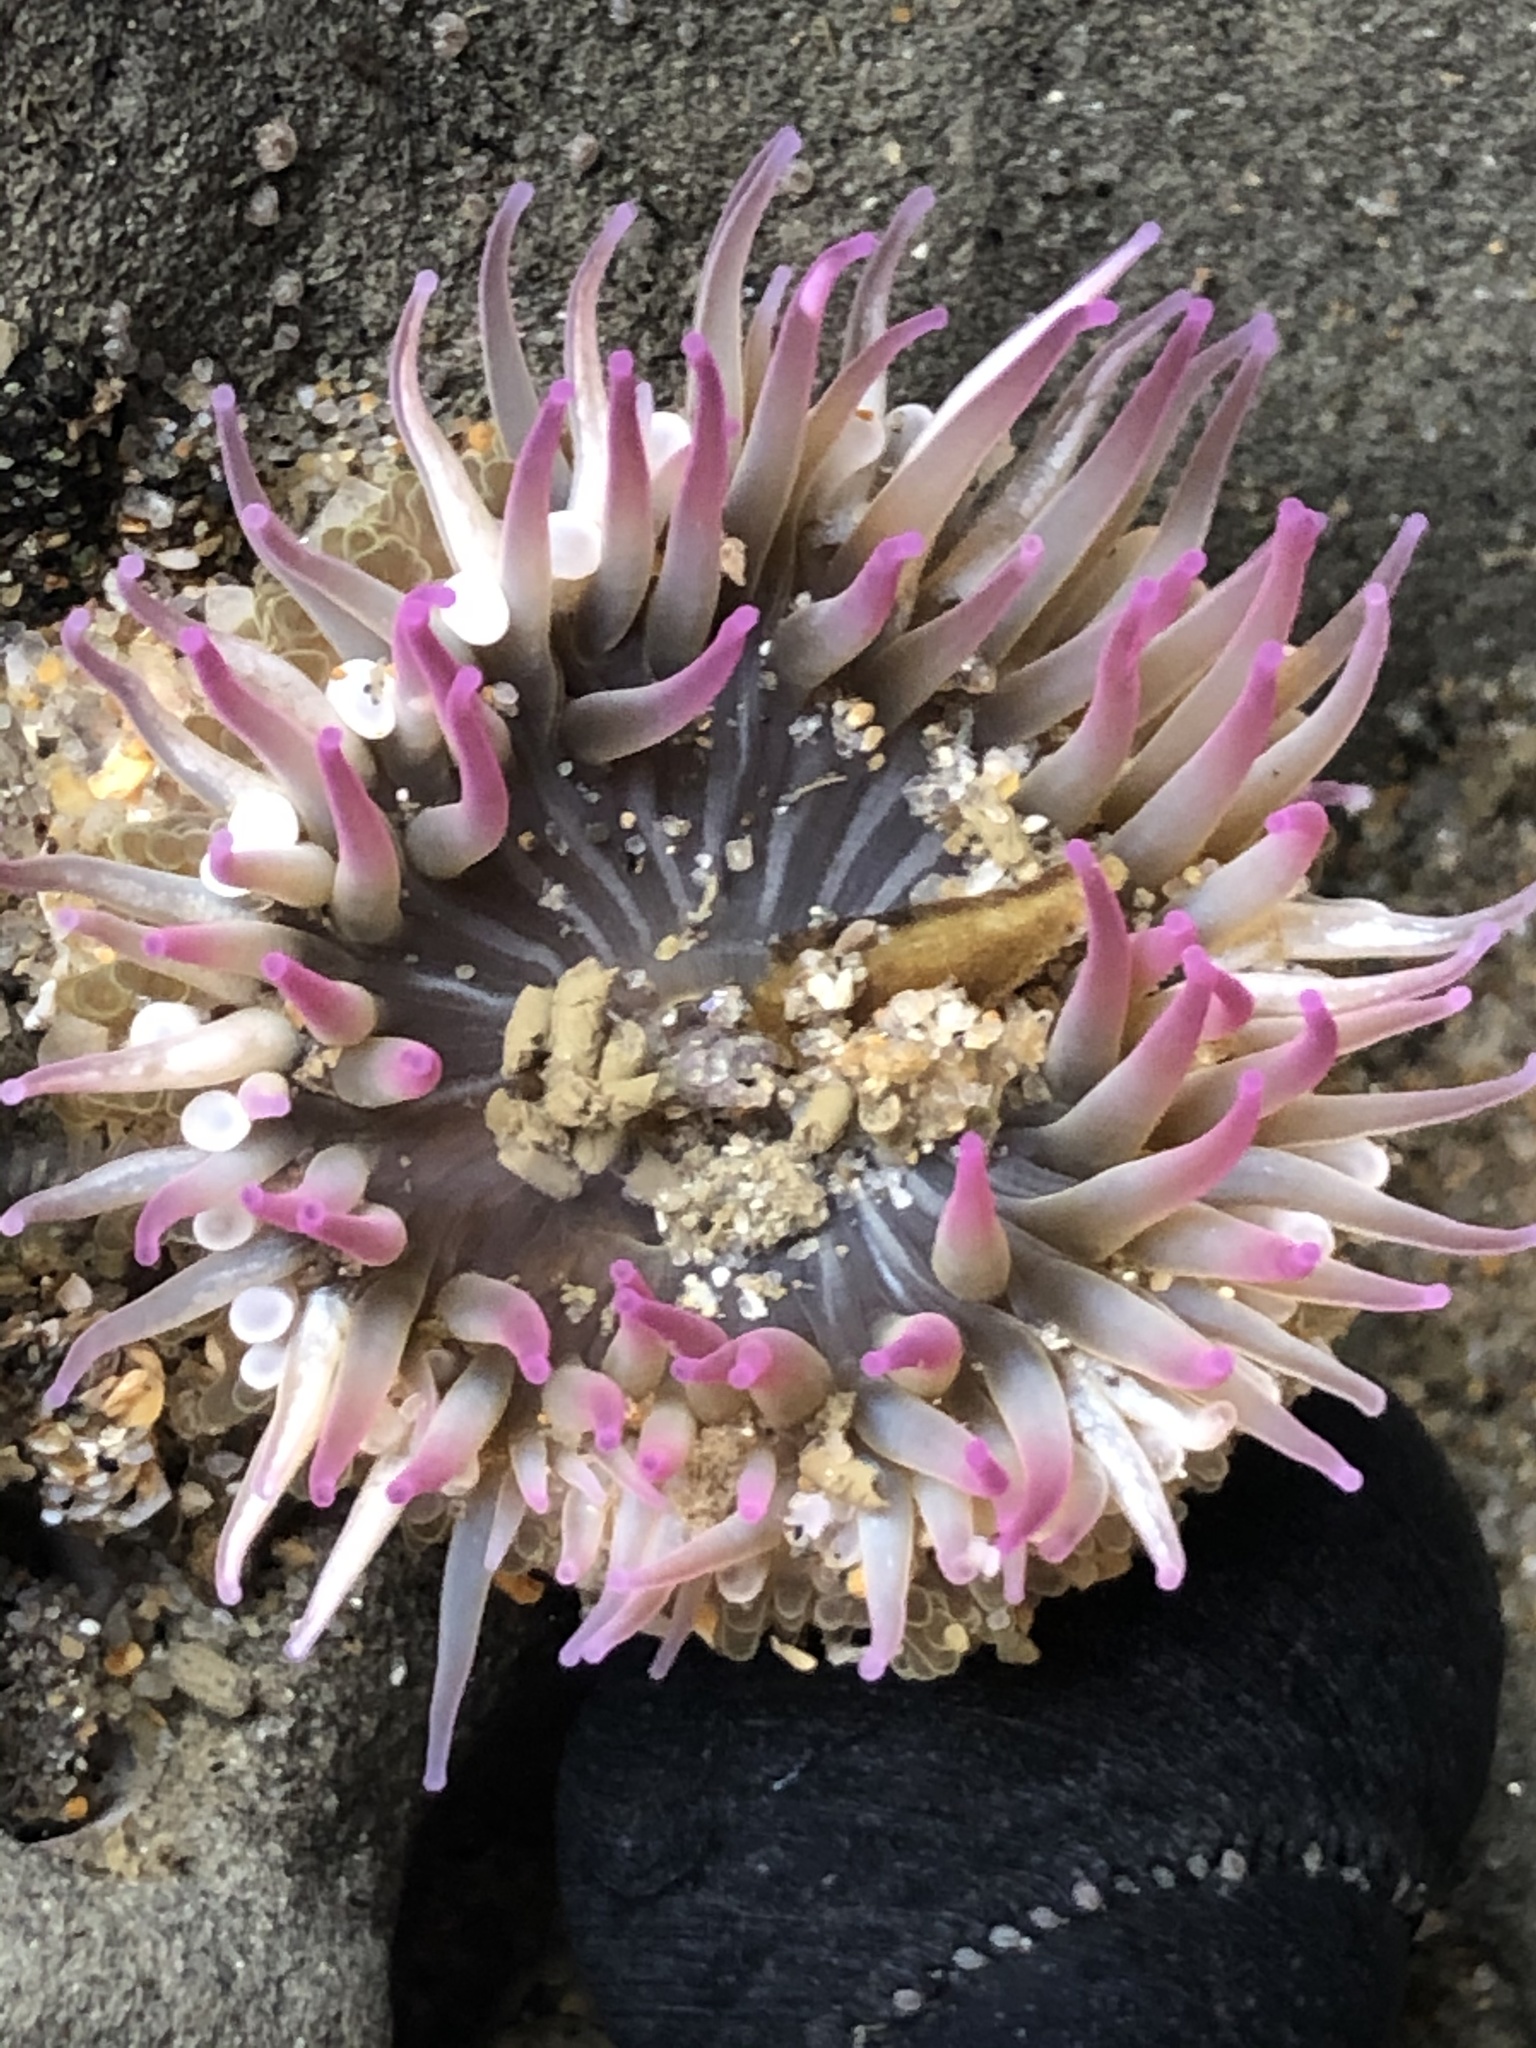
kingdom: Animalia
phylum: Cnidaria
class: Anthozoa
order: Actiniaria
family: Actiniidae
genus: Anthopleura
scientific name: Anthopleura elegantissima
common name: Clonal anemone
